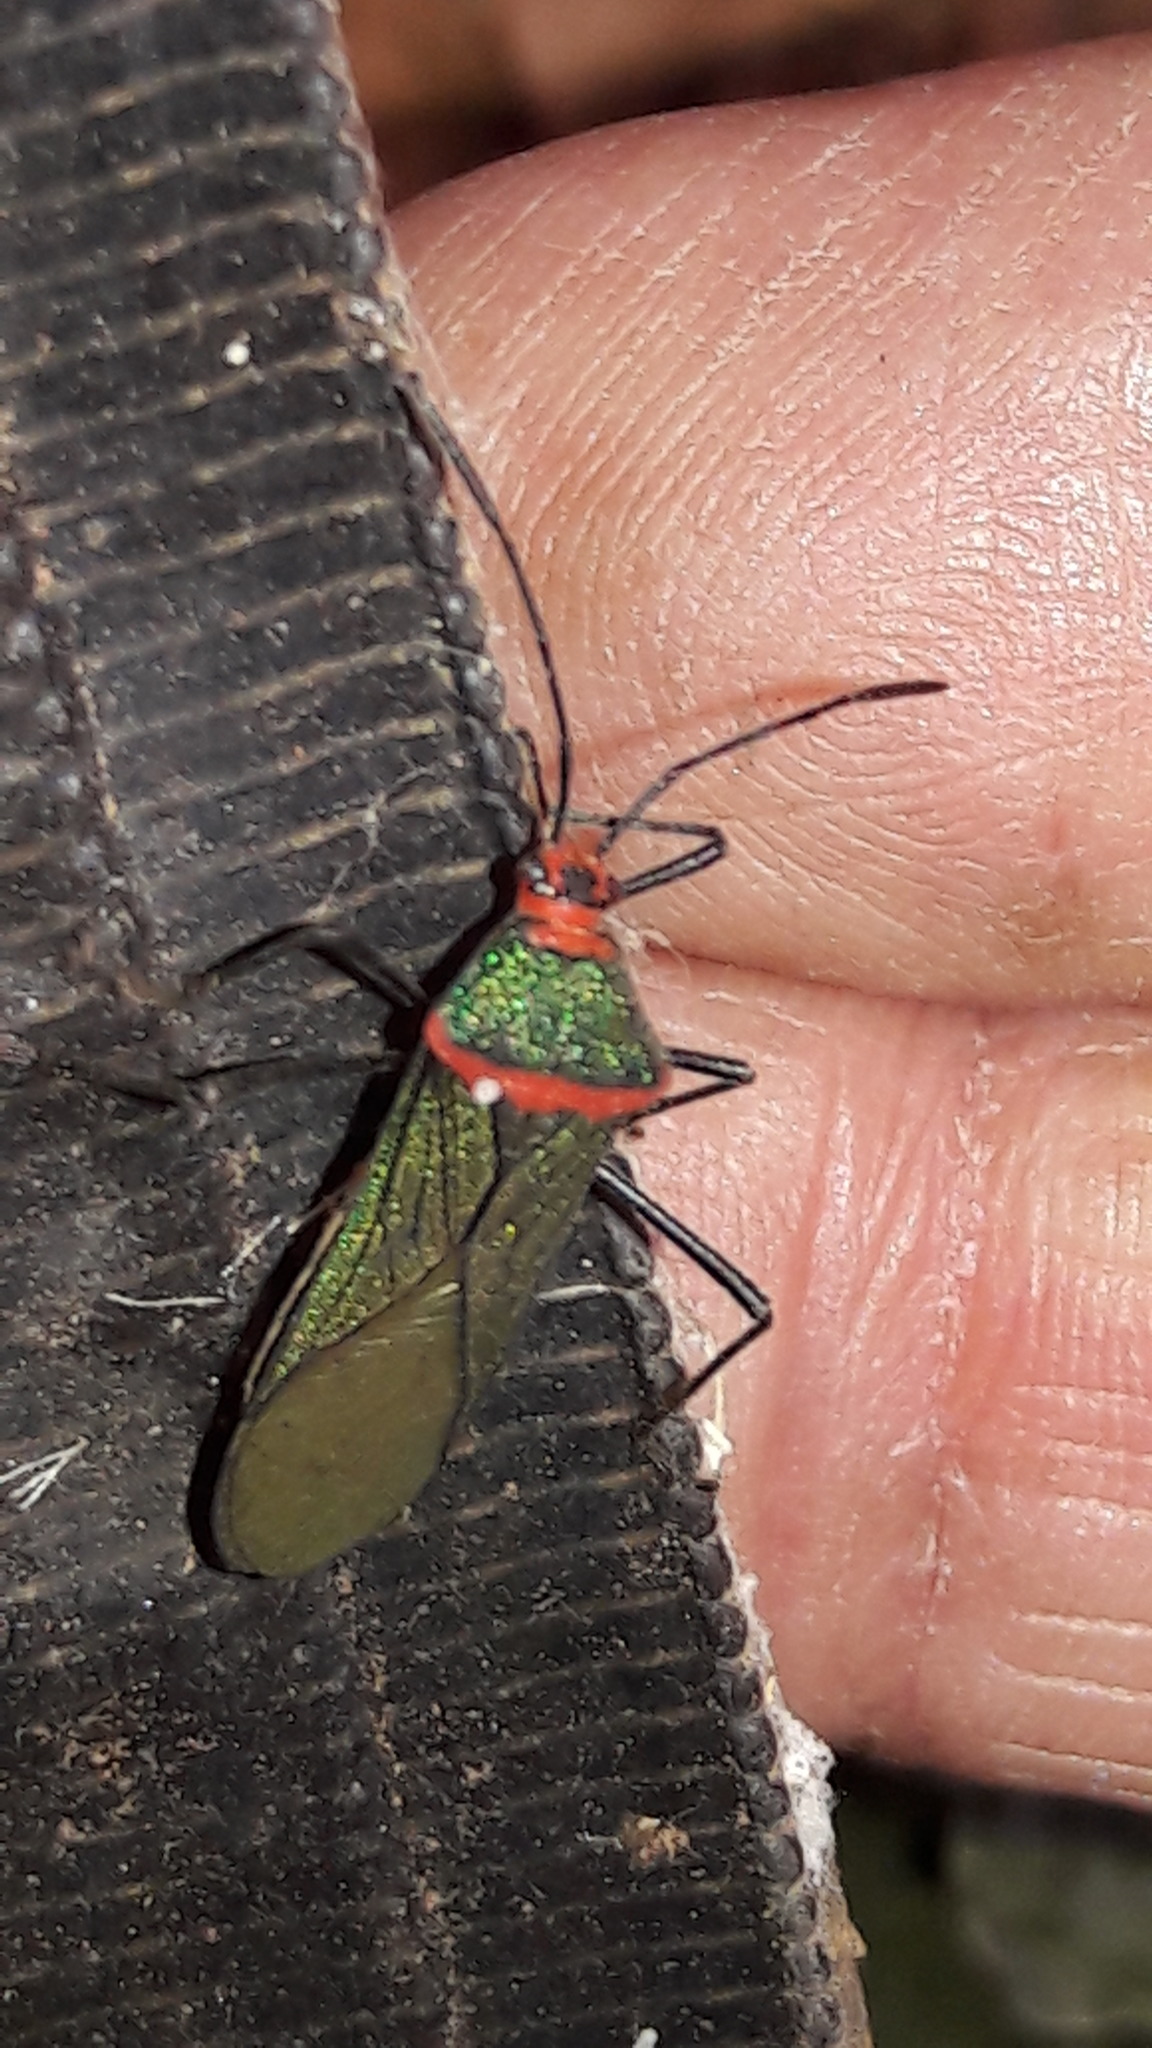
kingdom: Animalia
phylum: Arthropoda
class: Insecta
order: Hemiptera
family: Coreidae
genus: Sphictyrtus
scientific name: Sphictyrtus chrysis
